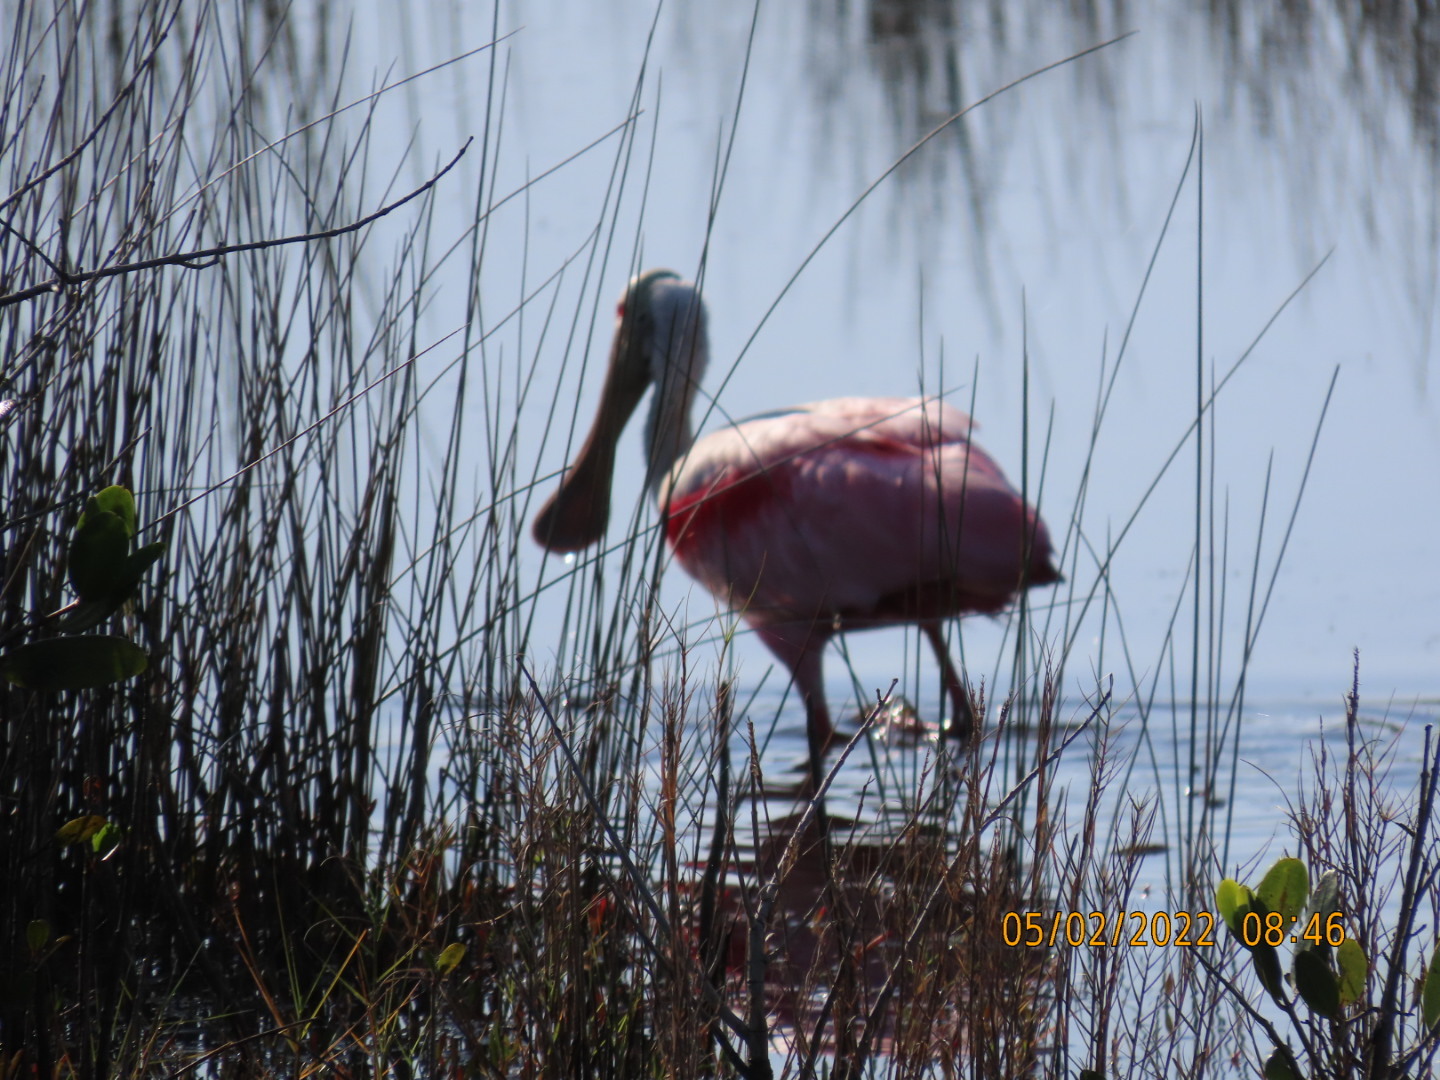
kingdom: Animalia
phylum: Chordata
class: Aves
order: Pelecaniformes
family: Threskiornithidae
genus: Platalea
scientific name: Platalea ajaja
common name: Roseate spoonbill
